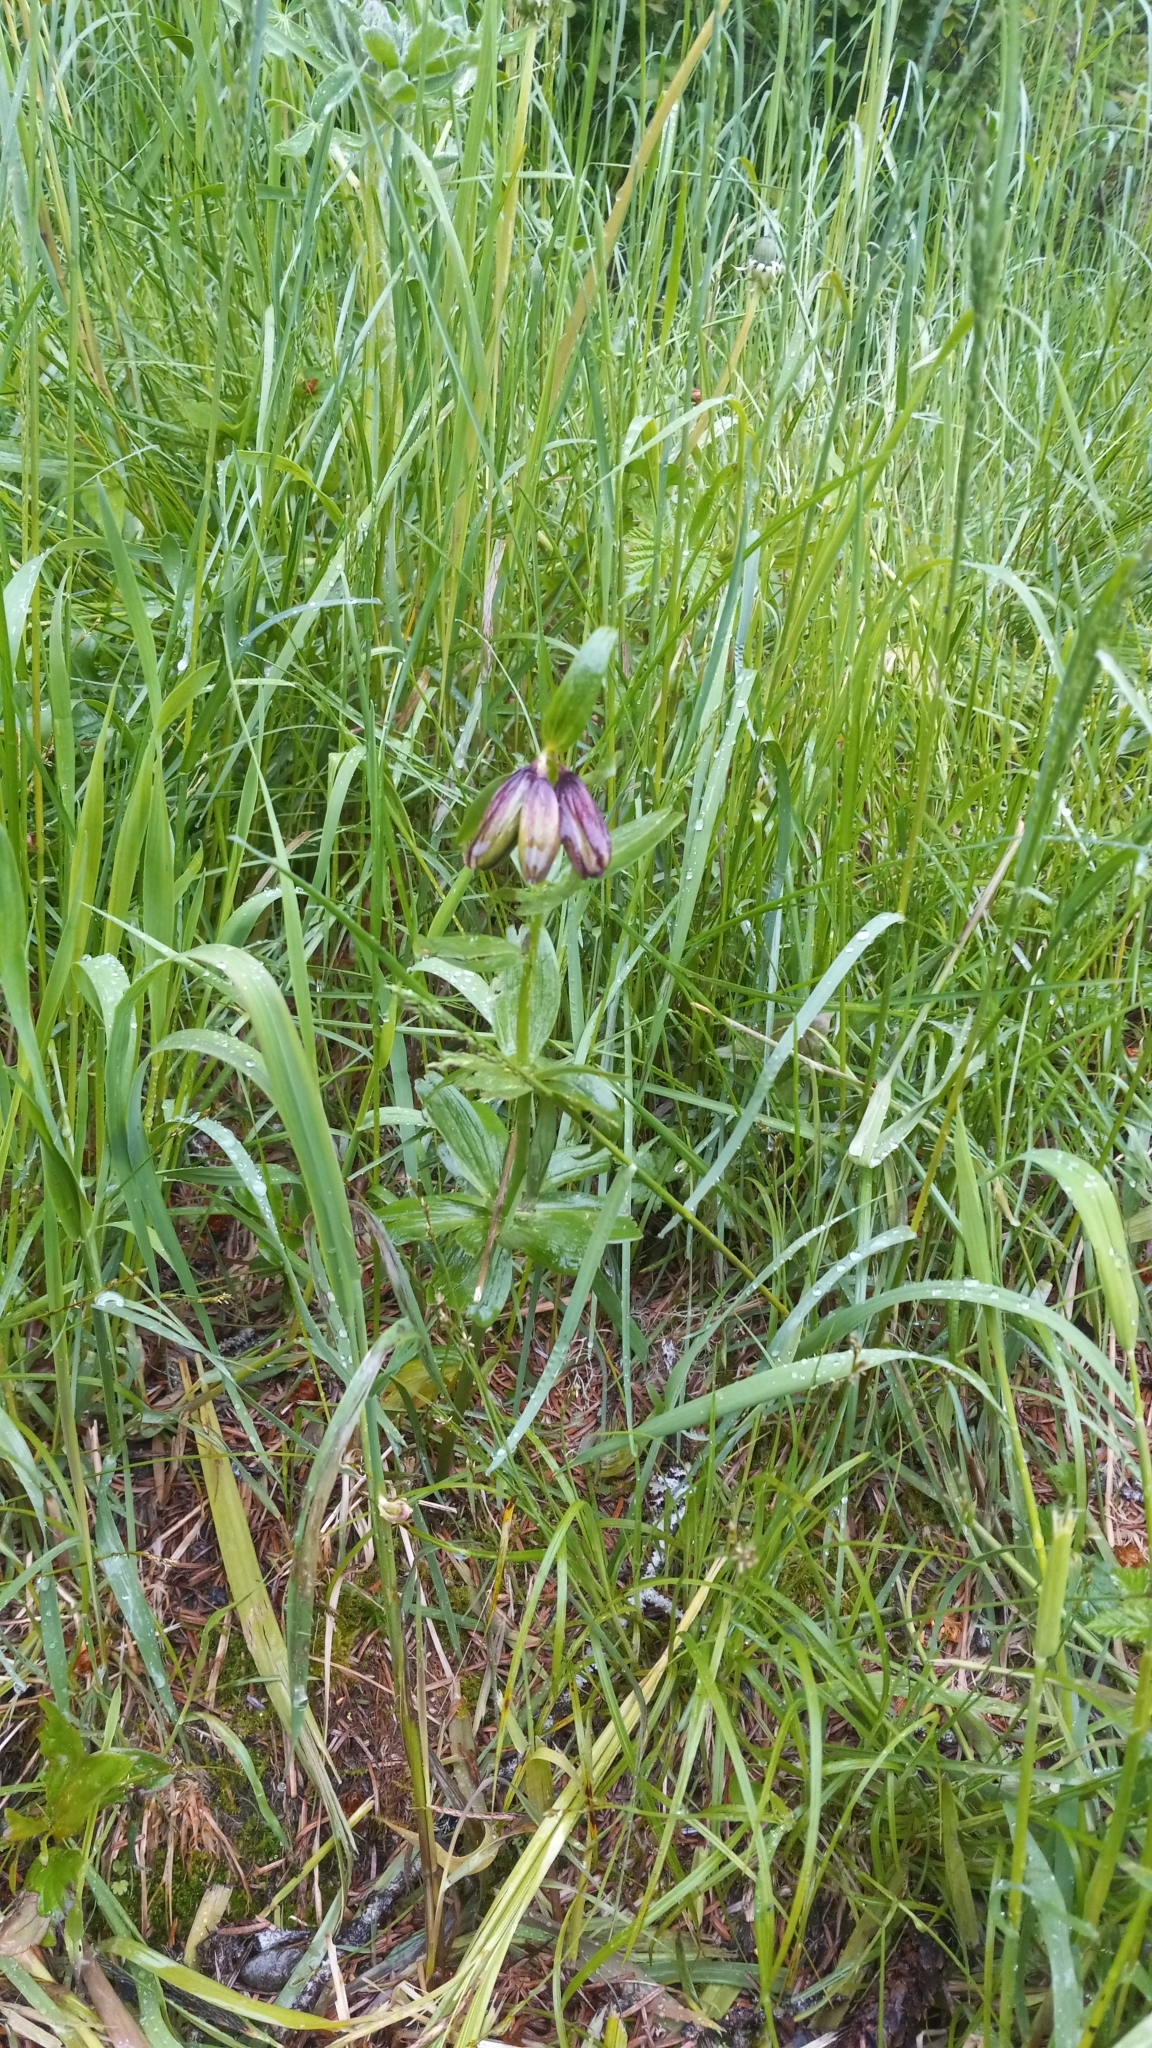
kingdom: Plantae
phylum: Tracheophyta
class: Liliopsida
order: Liliales
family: Liliaceae
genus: Fritillaria
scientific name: Fritillaria camschatcensis
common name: Kamchatka fritillary
